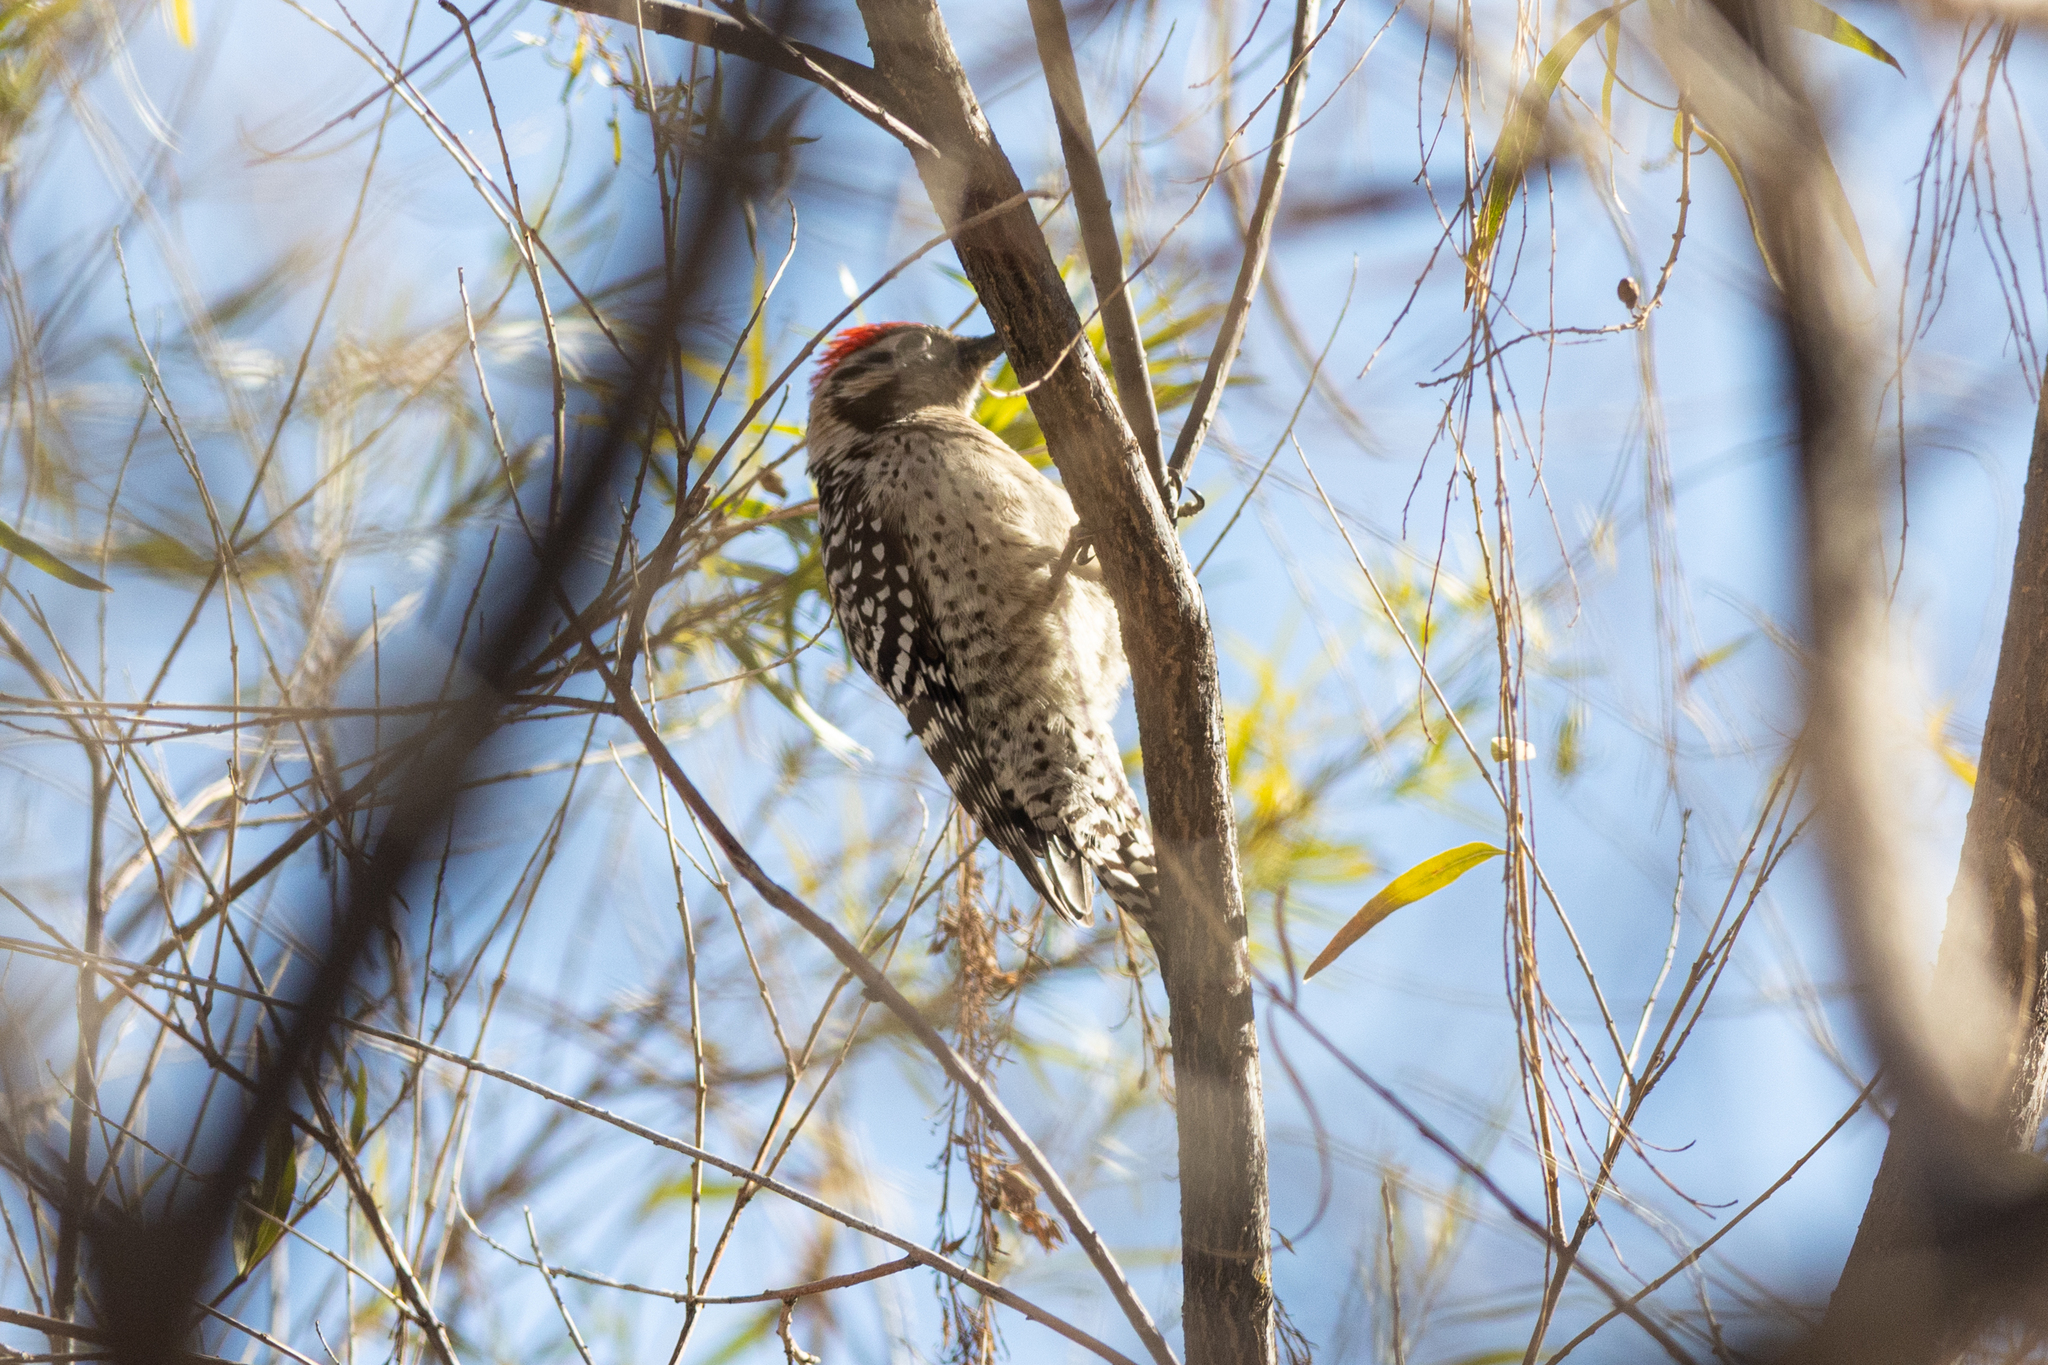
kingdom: Animalia
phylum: Chordata
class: Aves
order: Piciformes
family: Picidae
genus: Dryobates
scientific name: Dryobates scalaris
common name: Ladder-backed woodpecker
